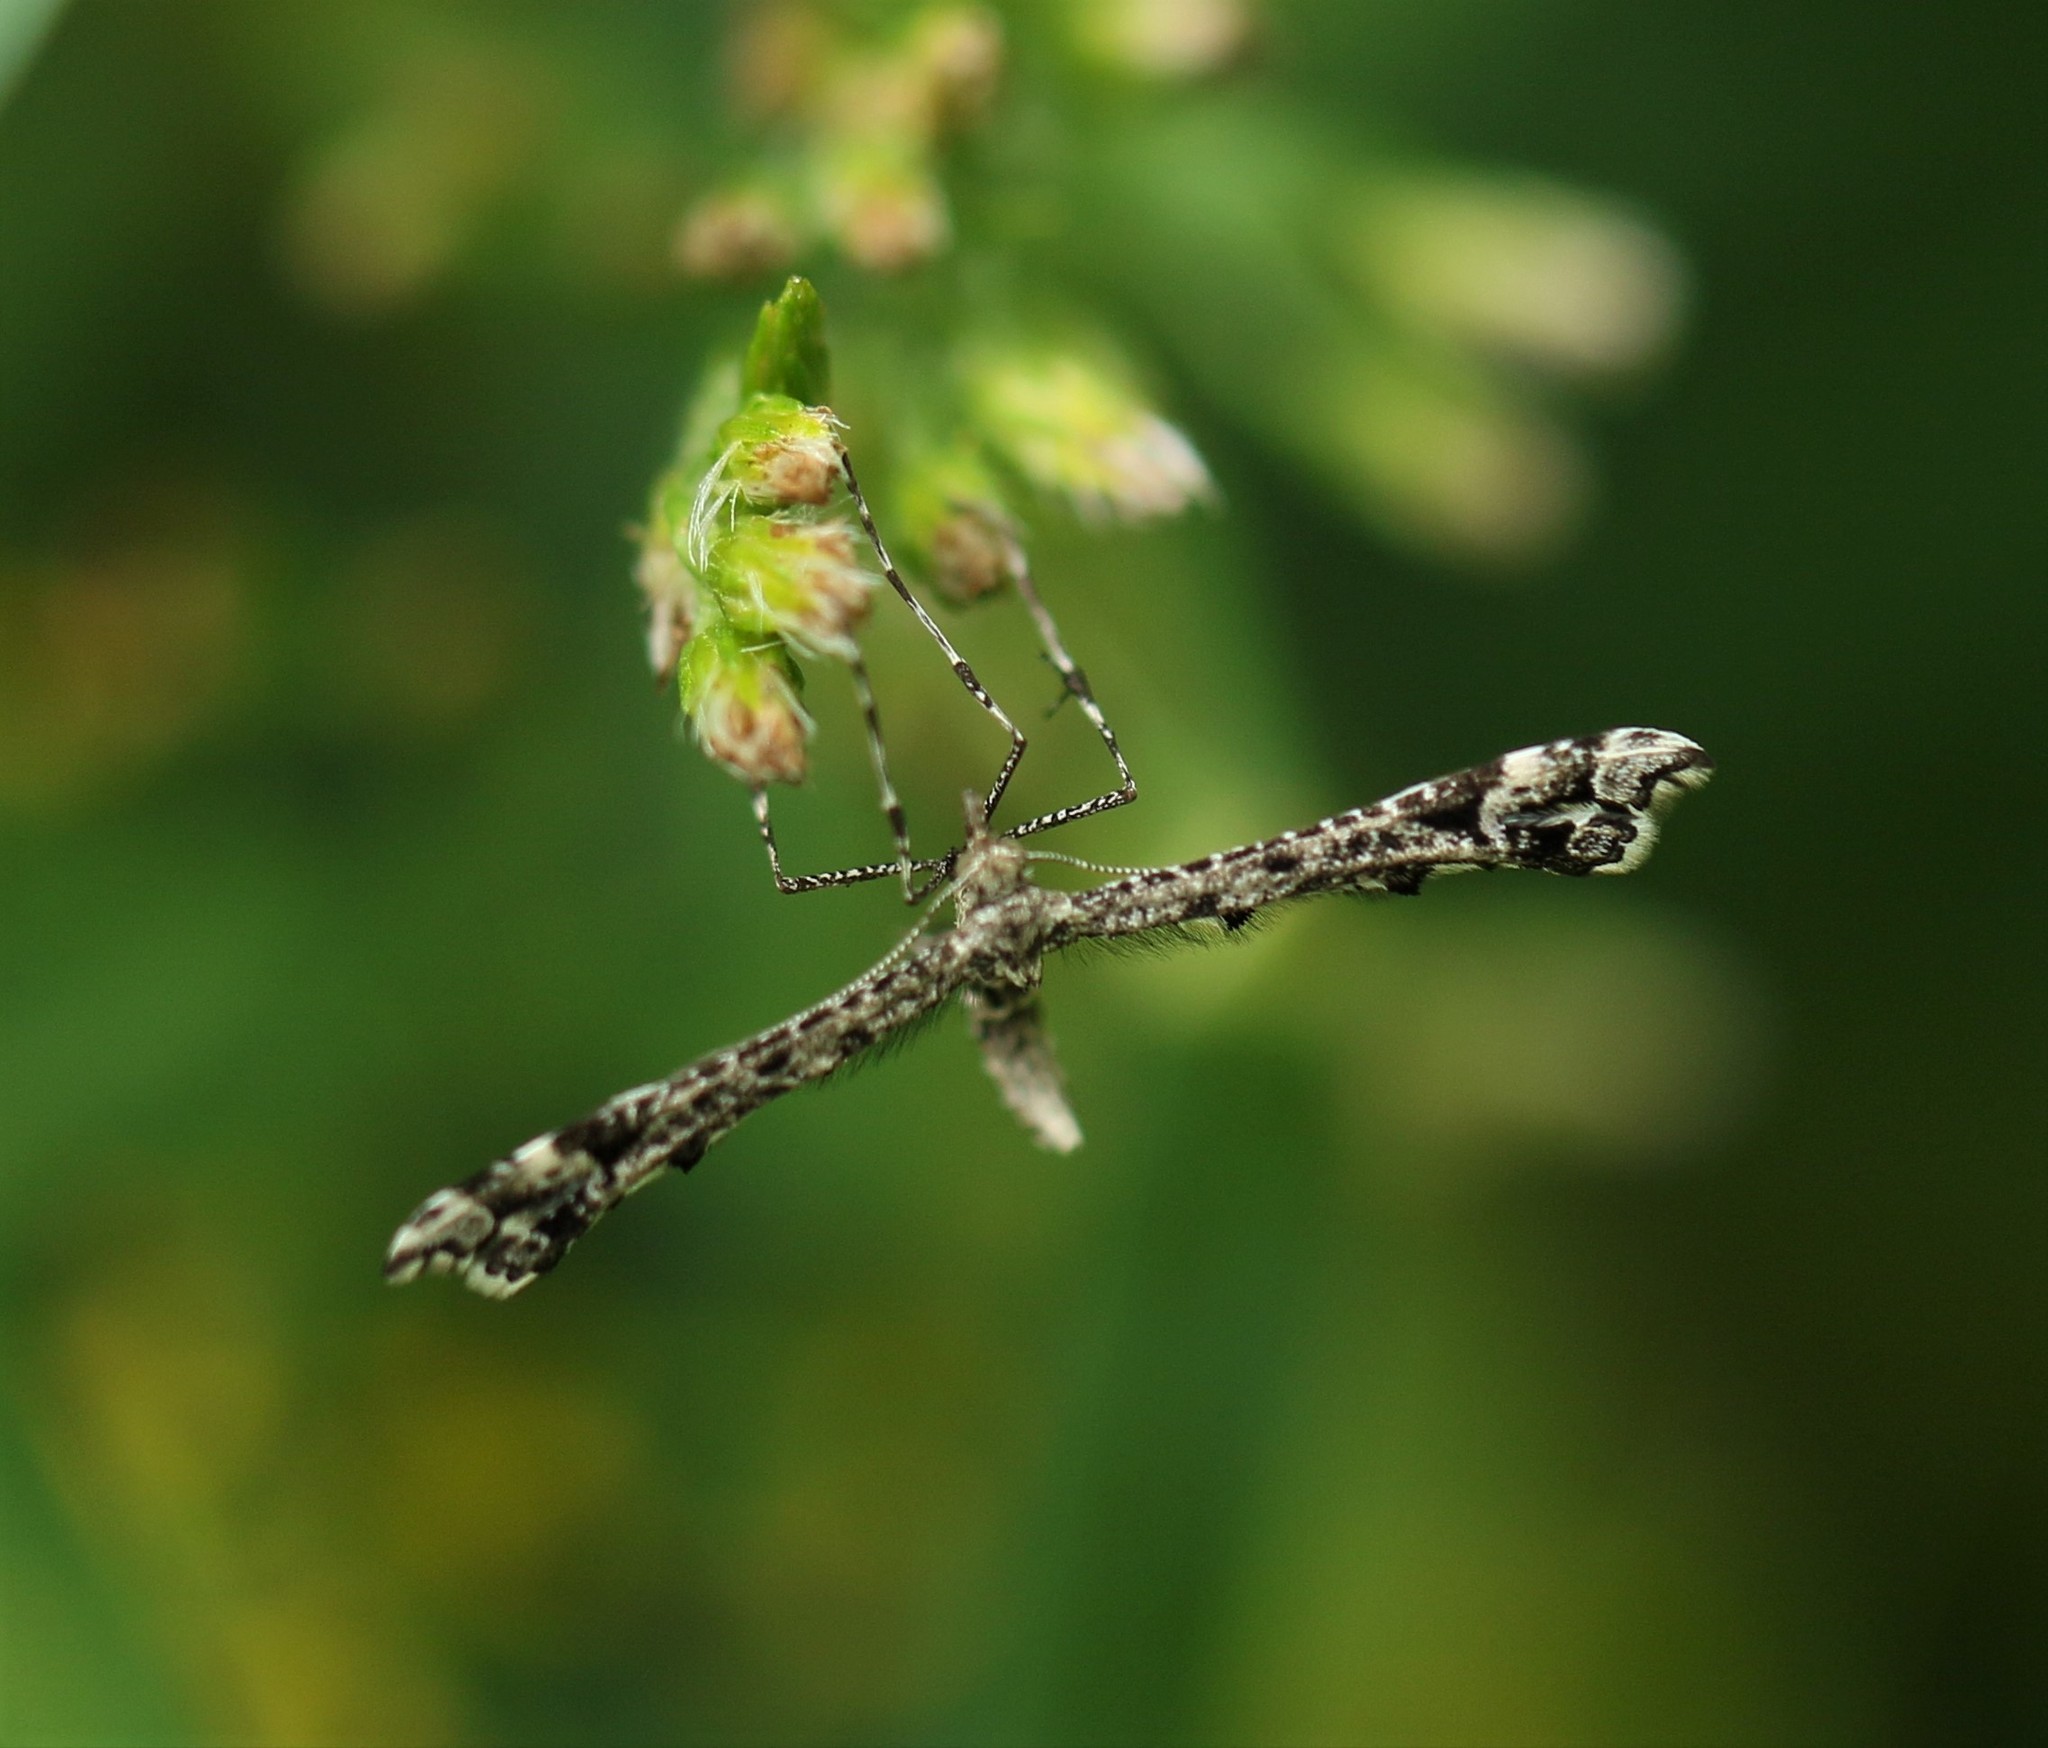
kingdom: Animalia
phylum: Arthropoda
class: Insecta
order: Lepidoptera
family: Pterophoridae
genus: Amblyptilia
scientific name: Amblyptilia pica
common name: Geranium plume moth
